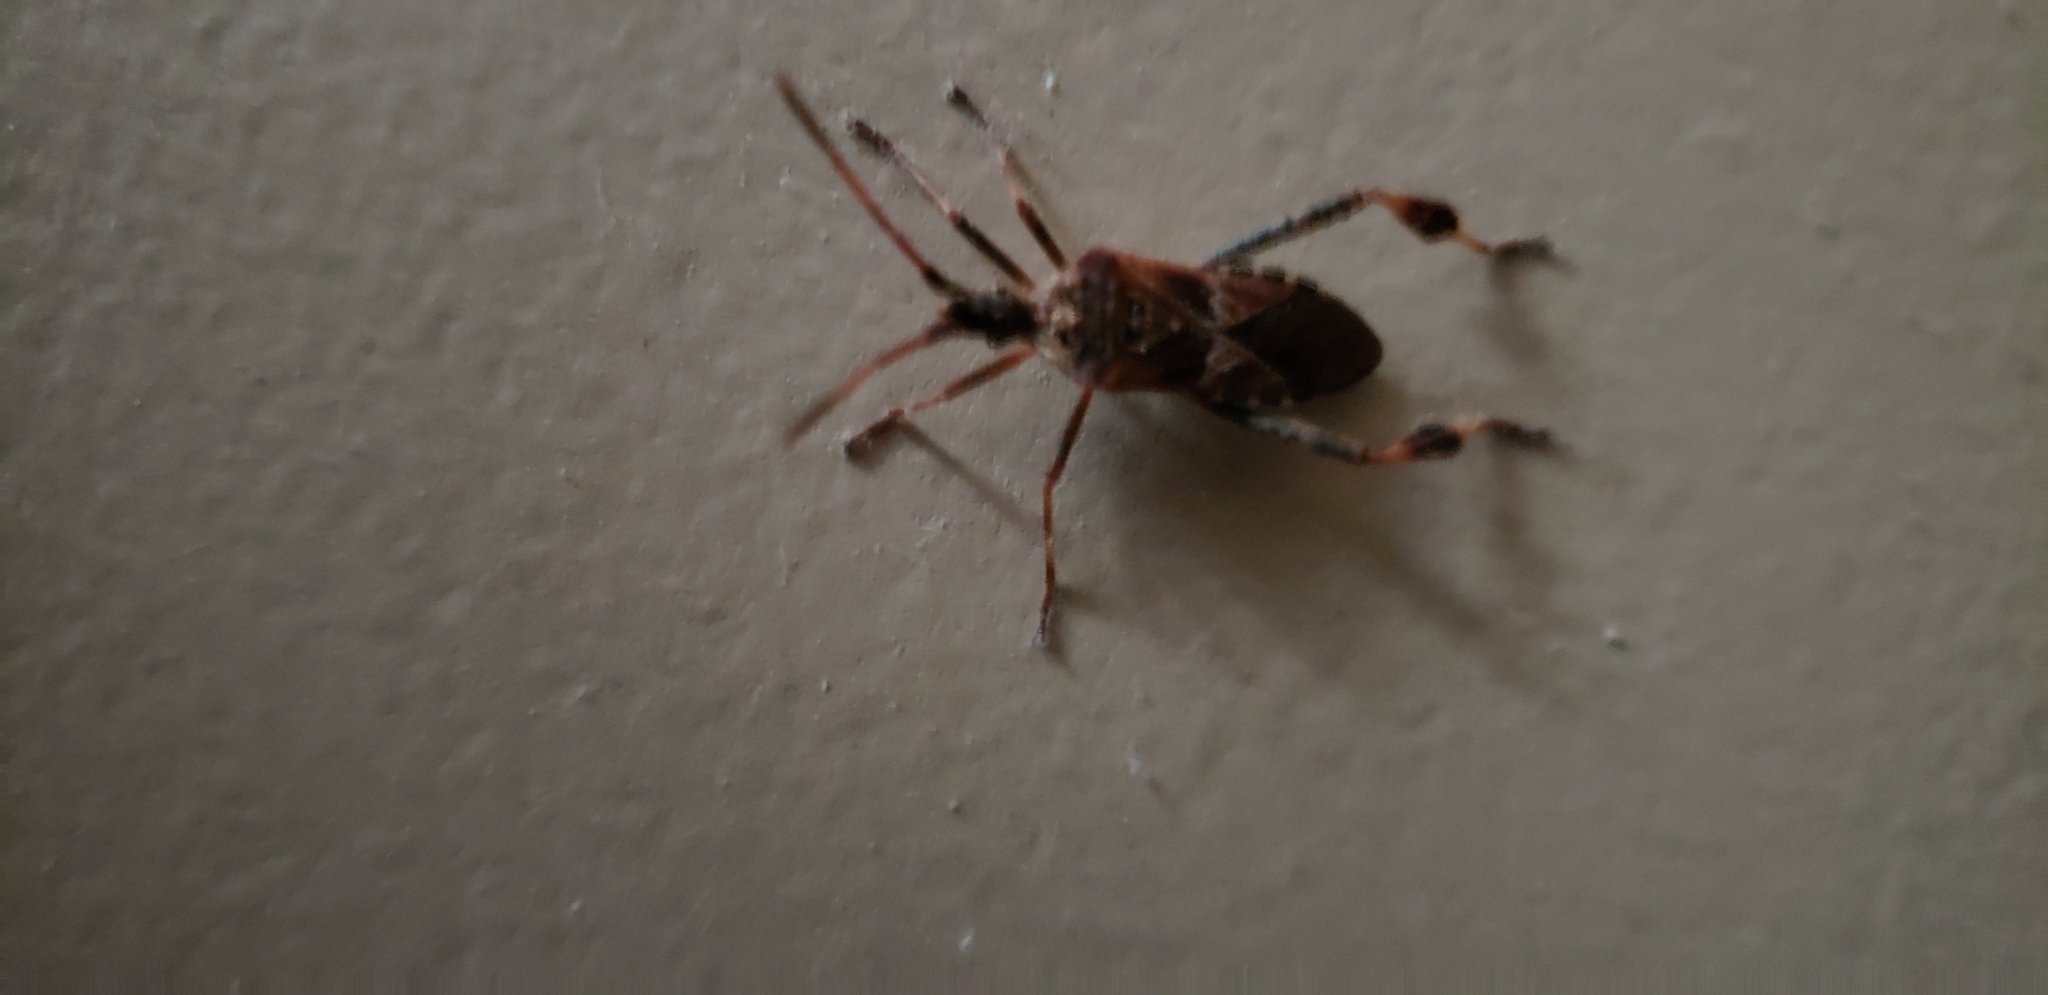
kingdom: Animalia
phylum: Arthropoda
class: Insecta
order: Hemiptera
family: Coreidae
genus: Leptoglossus
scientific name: Leptoglossus occidentalis
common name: Western conifer-seed bug
